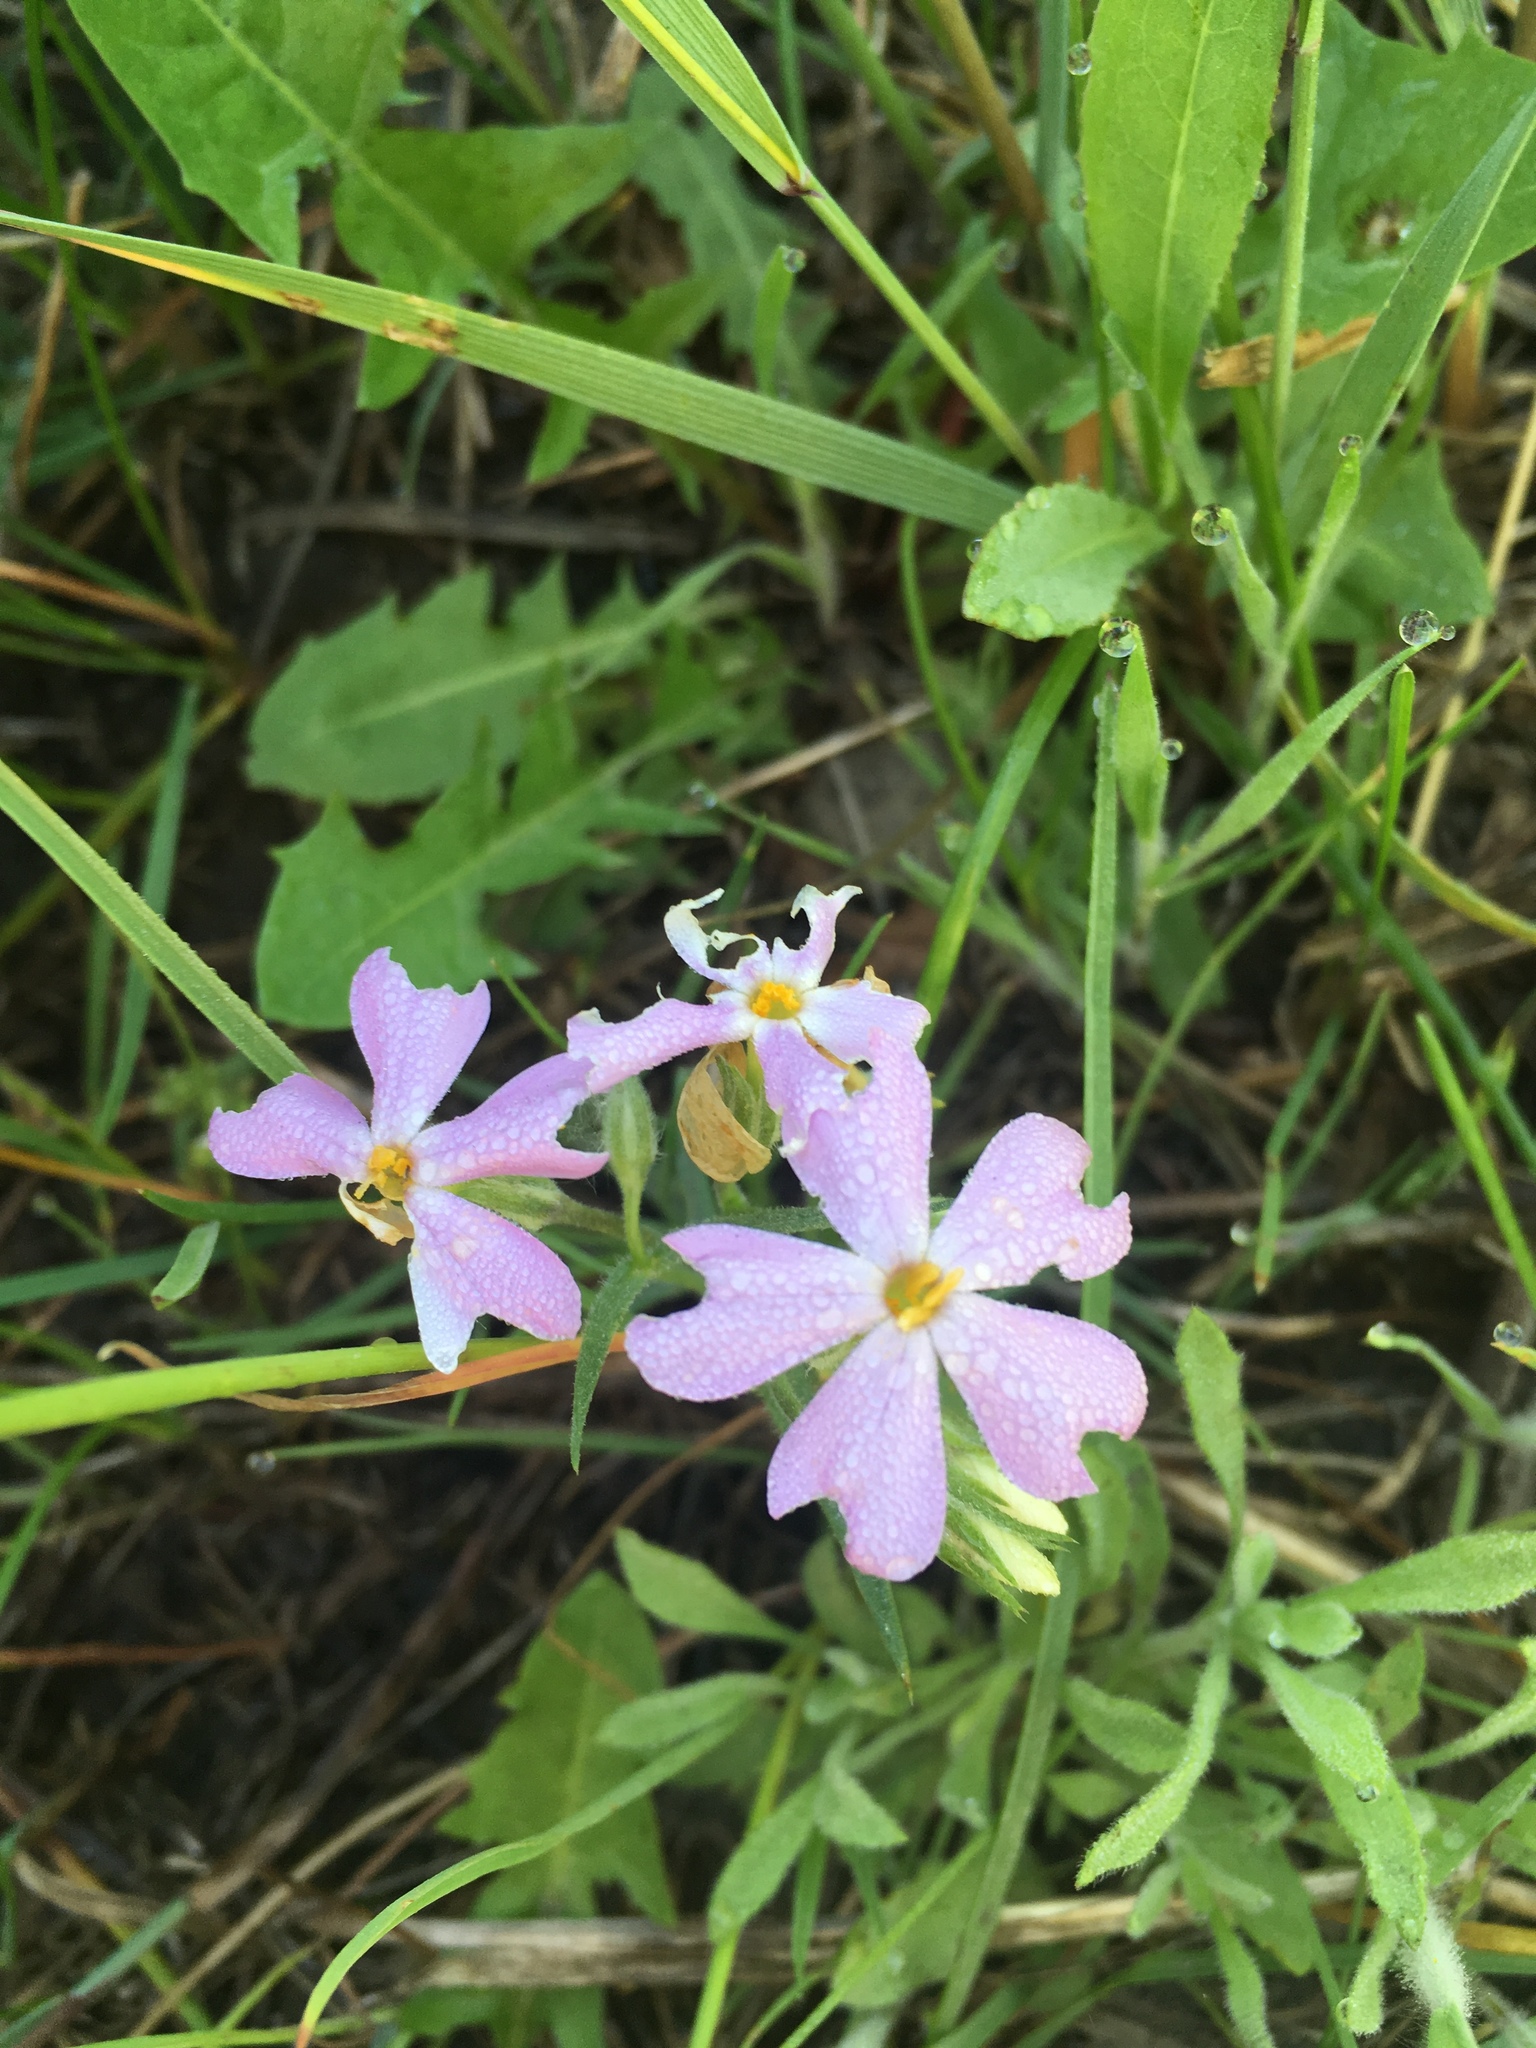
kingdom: Plantae
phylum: Tracheophyta
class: Magnoliopsida
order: Ericales
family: Polemoniaceae
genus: Phlox
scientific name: Phlox longifolia
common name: Longleaf phlox
